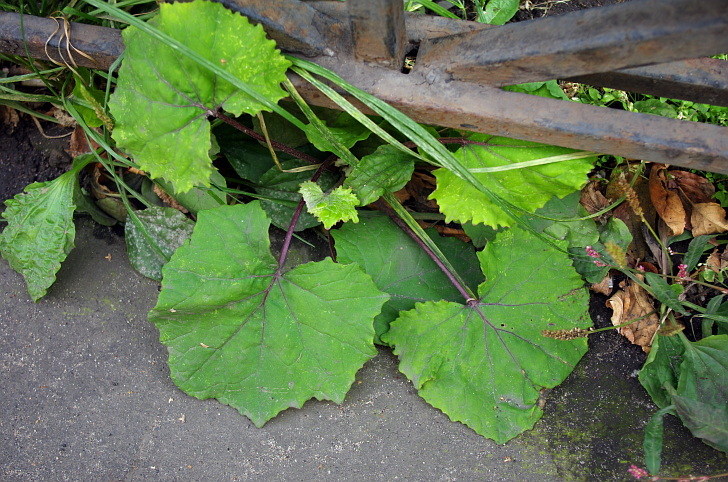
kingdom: Plantae
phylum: Tracheophyta
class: Magnoliopsida
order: Asterales
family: Asteraceae
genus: Tussilago
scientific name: Tussilago farfara
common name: Coltsfoot
